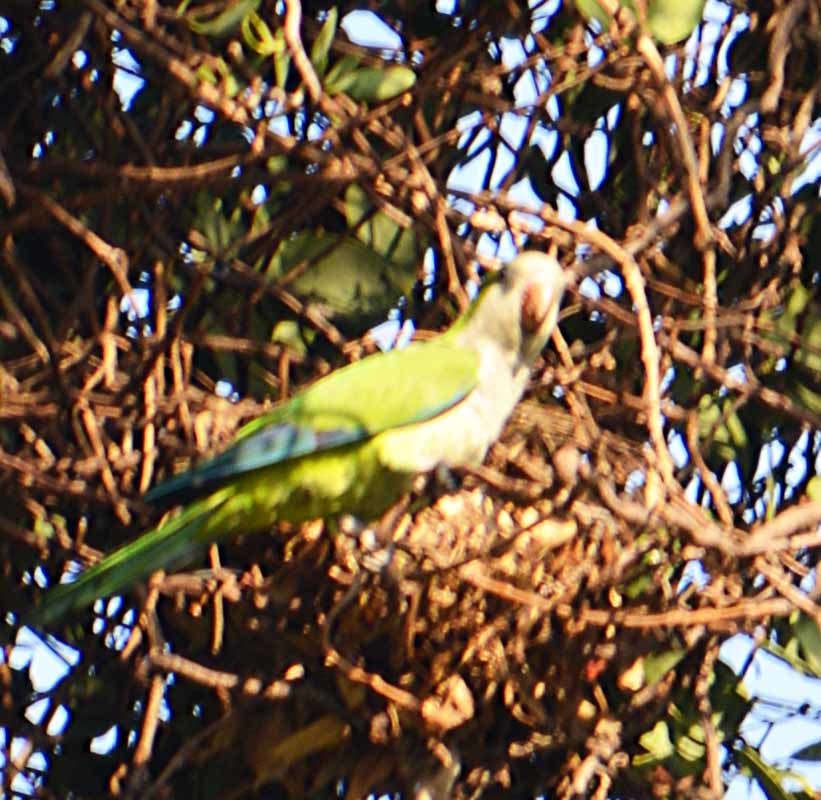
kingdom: Animalia
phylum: Chordata
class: Aves
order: Psittaciformes
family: Psittacidae
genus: Myiopsitta
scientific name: Myiopsitta monachus
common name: Monk parakeet
